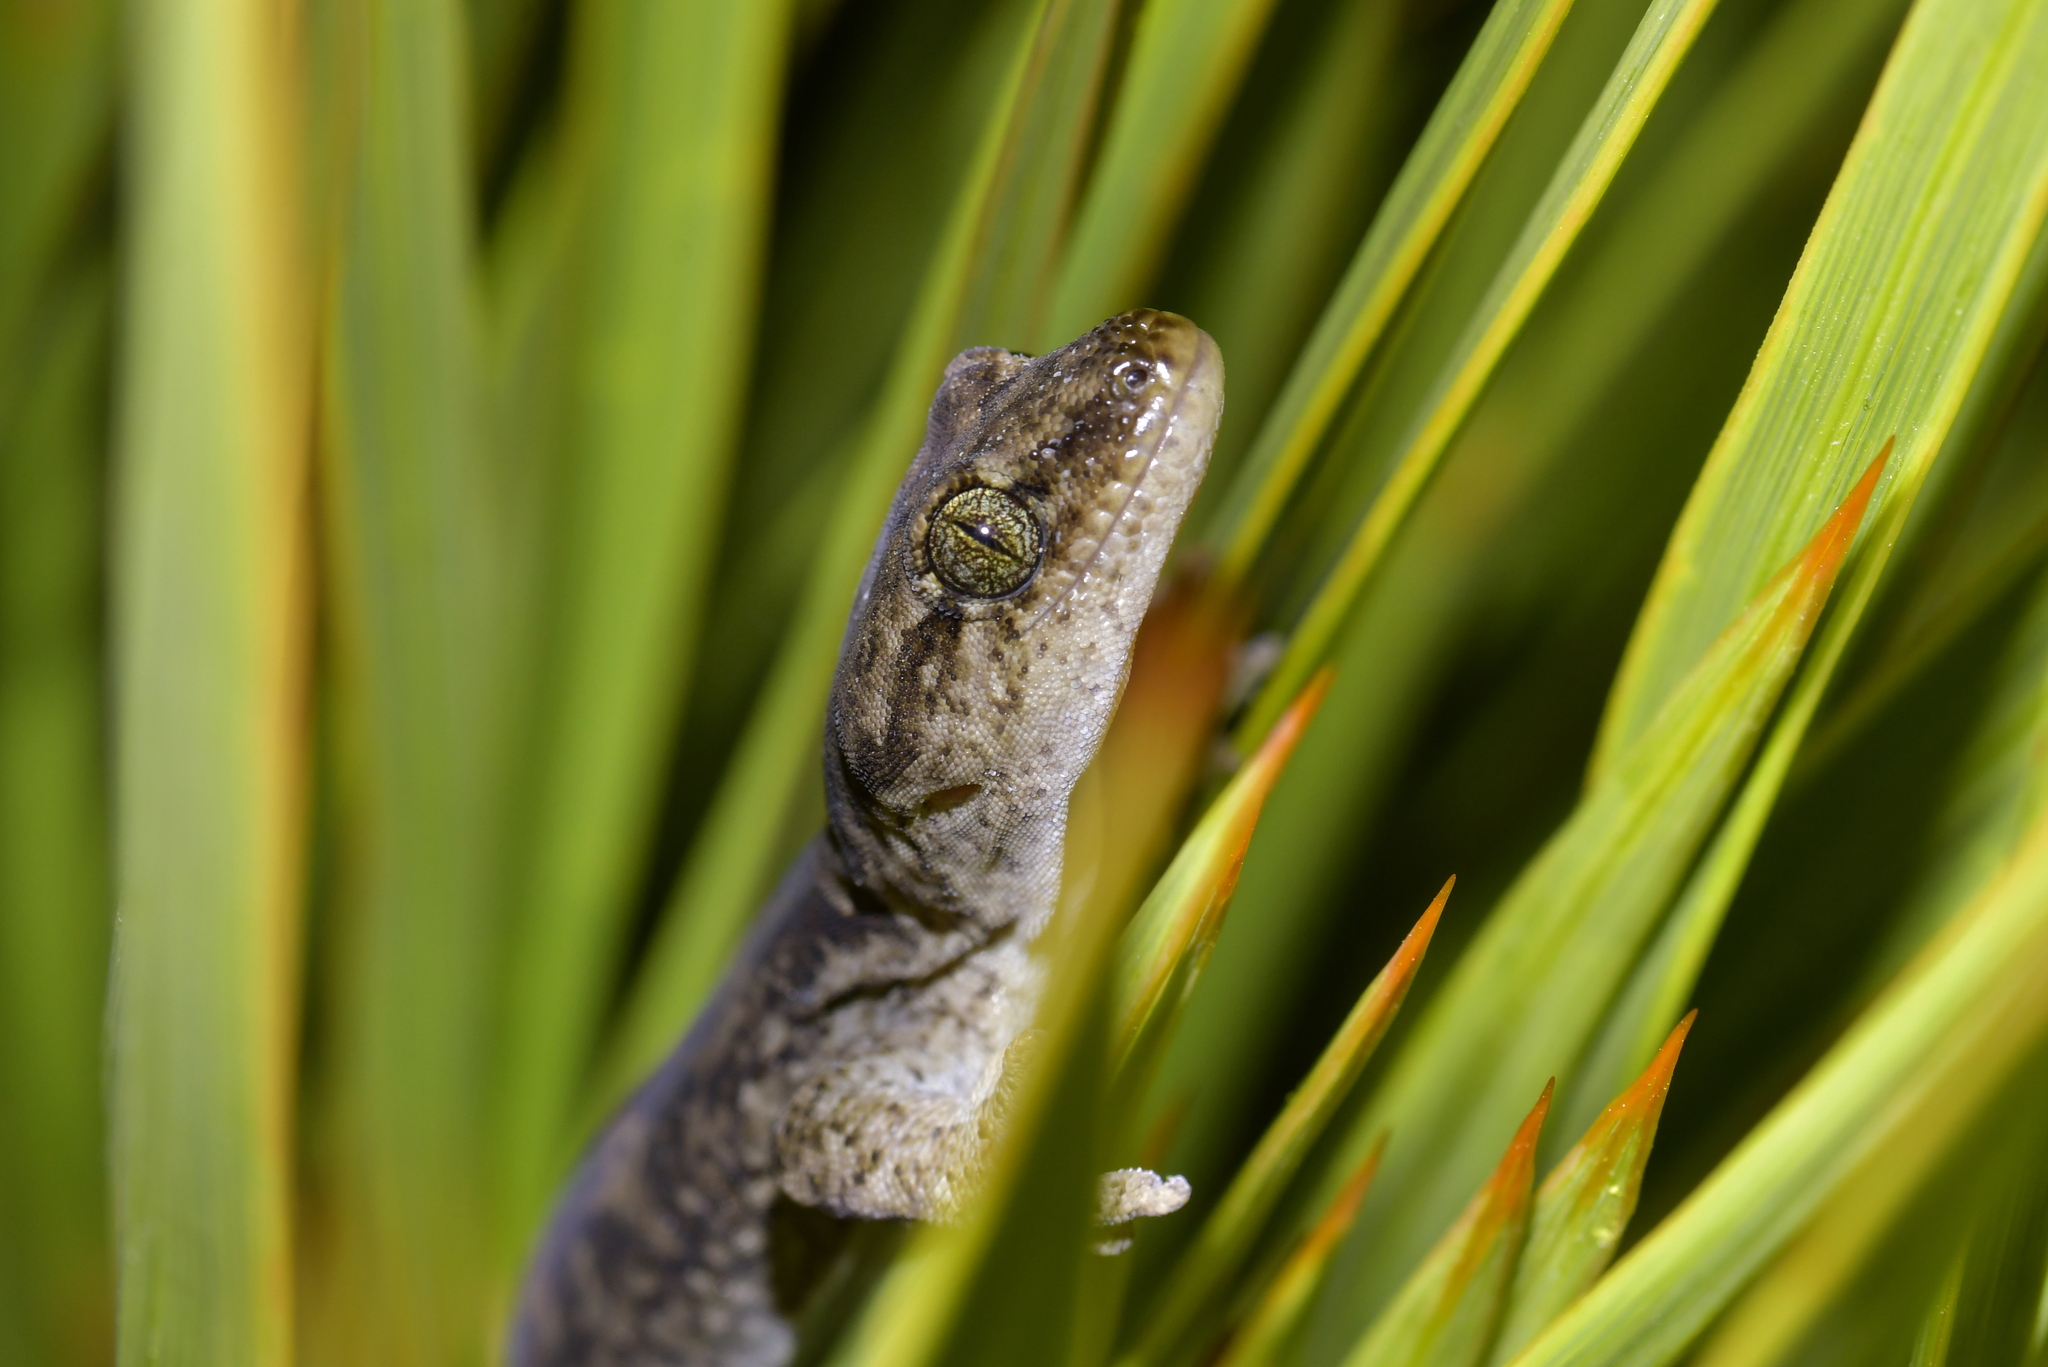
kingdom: Animalia
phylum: Chordata
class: Squamata
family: Diplodactylidae
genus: Woodworthia
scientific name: Woodworthia
